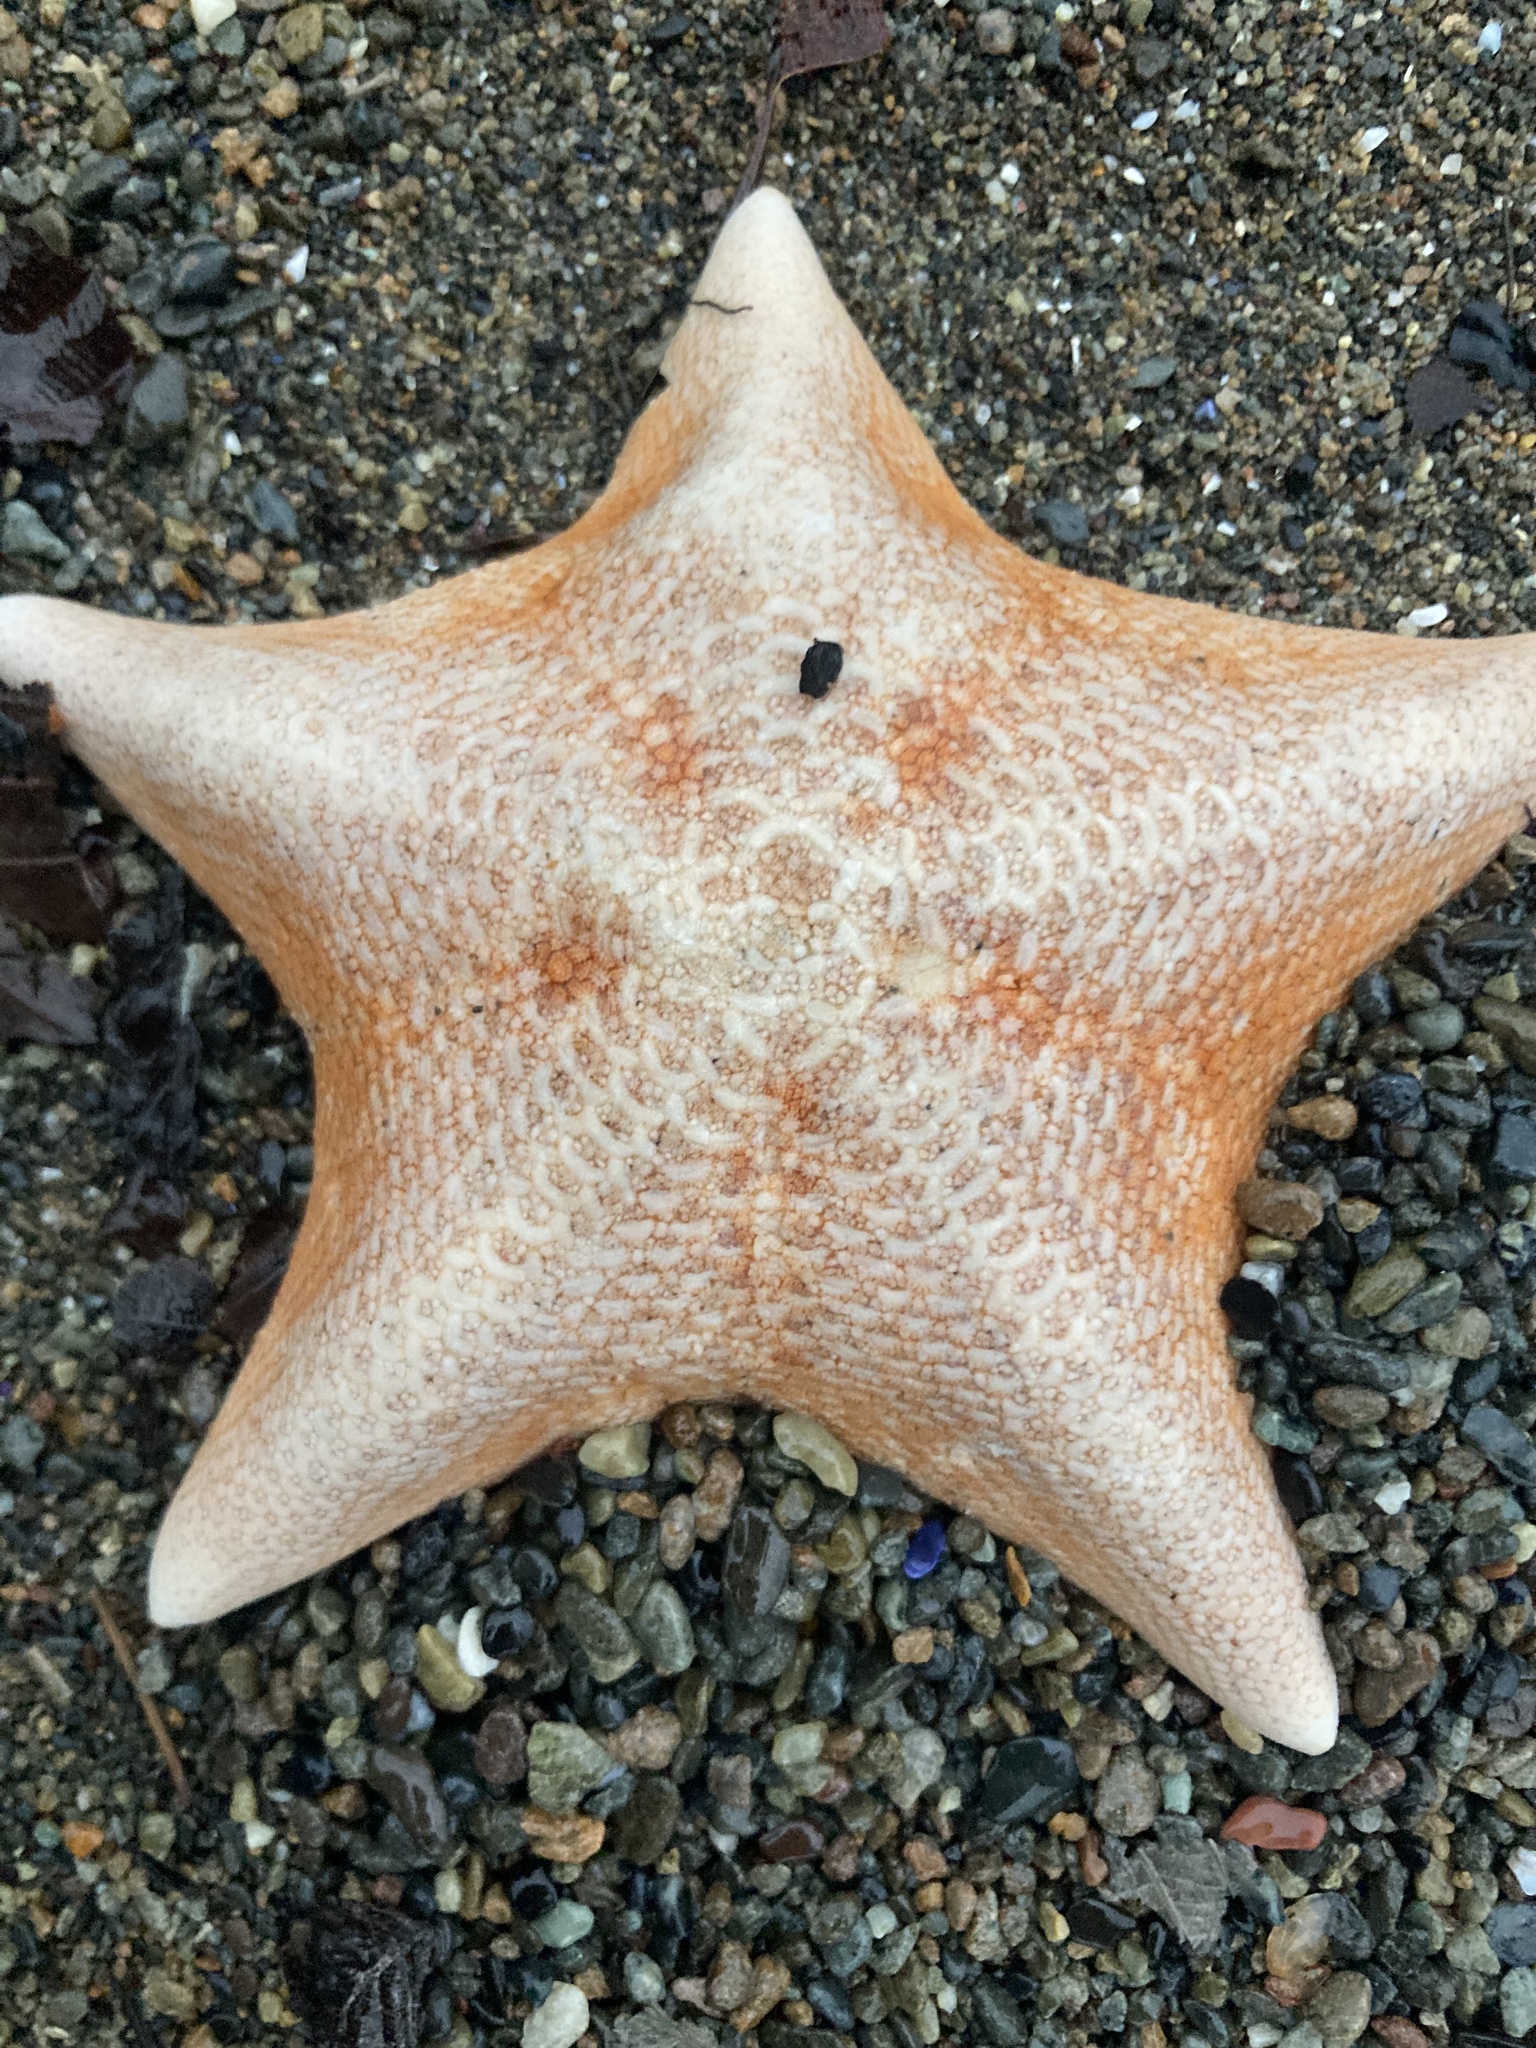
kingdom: Animalia
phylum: Echinodermata
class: Asteroidea
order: Valvatida
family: Asterinidae
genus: Patiria
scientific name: Patiria miniata
